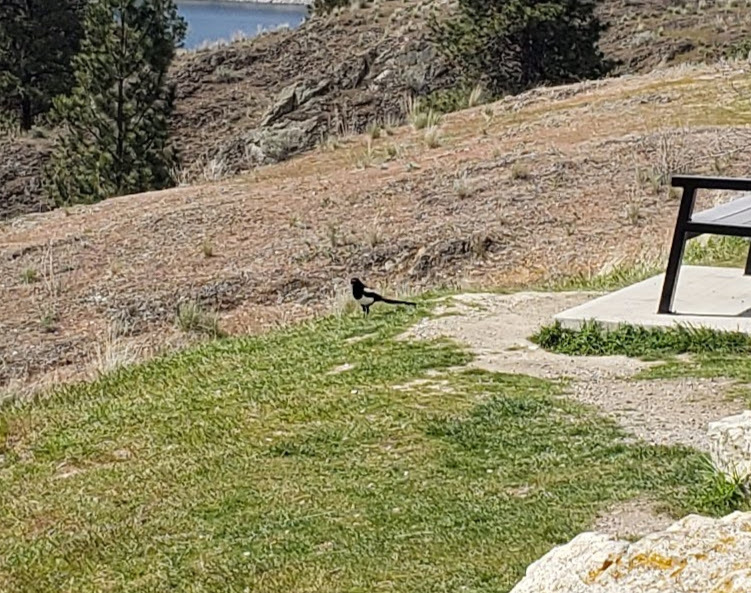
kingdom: Animalia
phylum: Chordata
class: Aves
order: Passeriformes
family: Corvidae
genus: Pica
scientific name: Pica hudsonia
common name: Black-billed magpie
